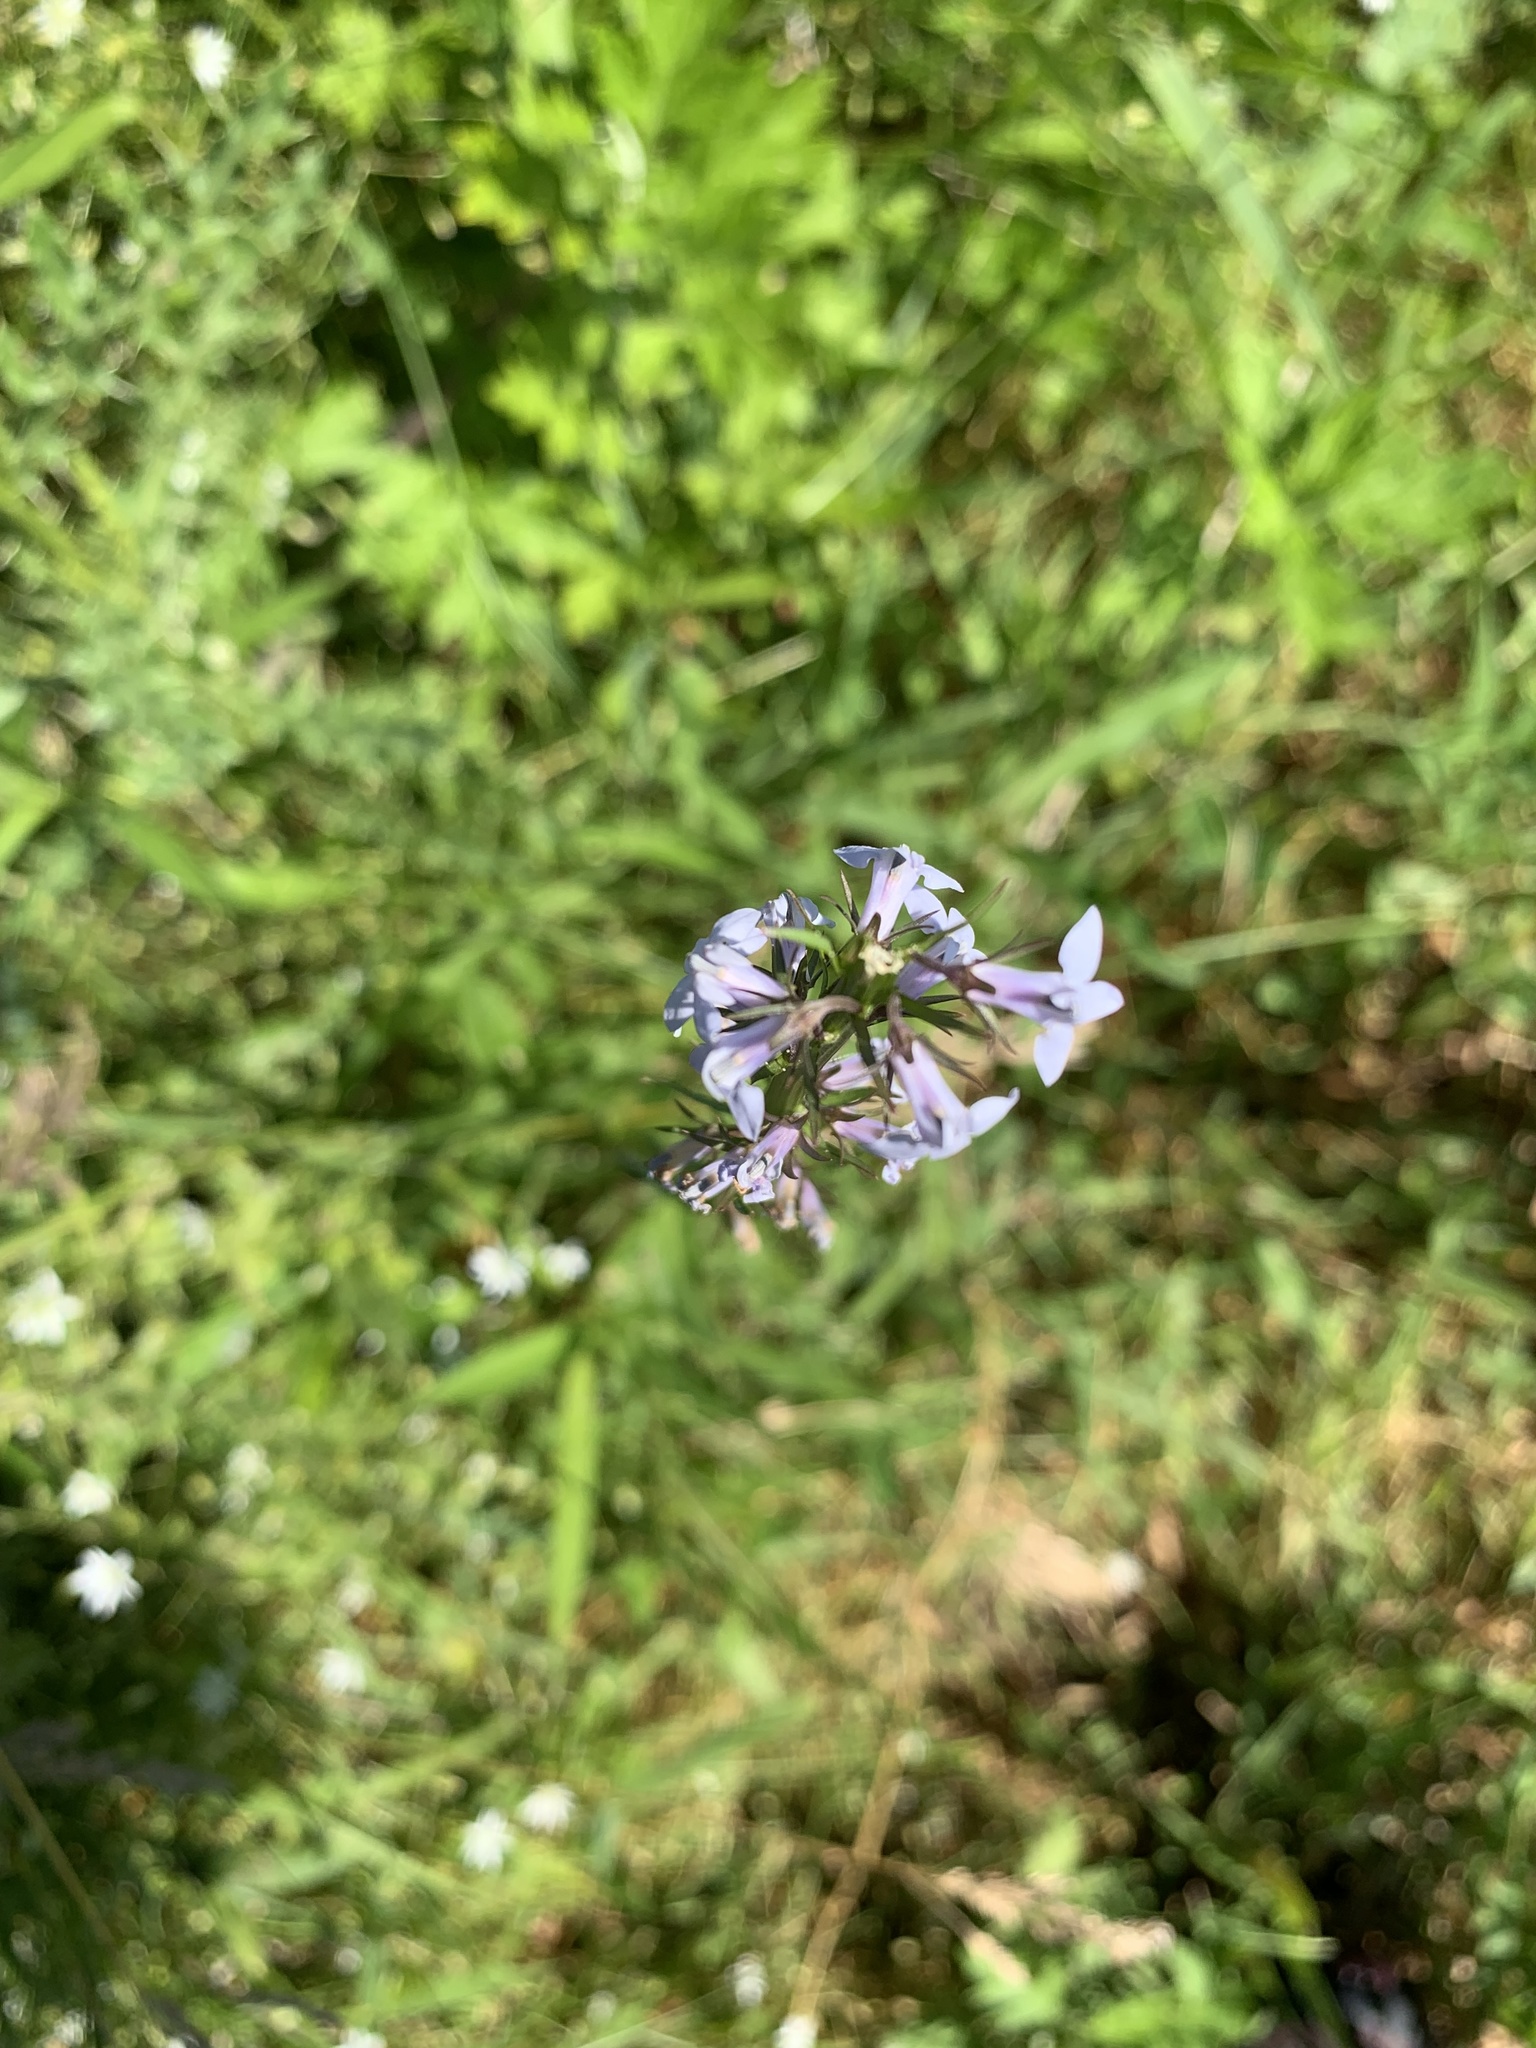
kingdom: Plantae
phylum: Tracheophyta
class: Magnoliopsida
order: Asterales
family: Campanulaceae
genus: Lobelia
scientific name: Lobelia spicata
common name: Pale-spike lobelia
